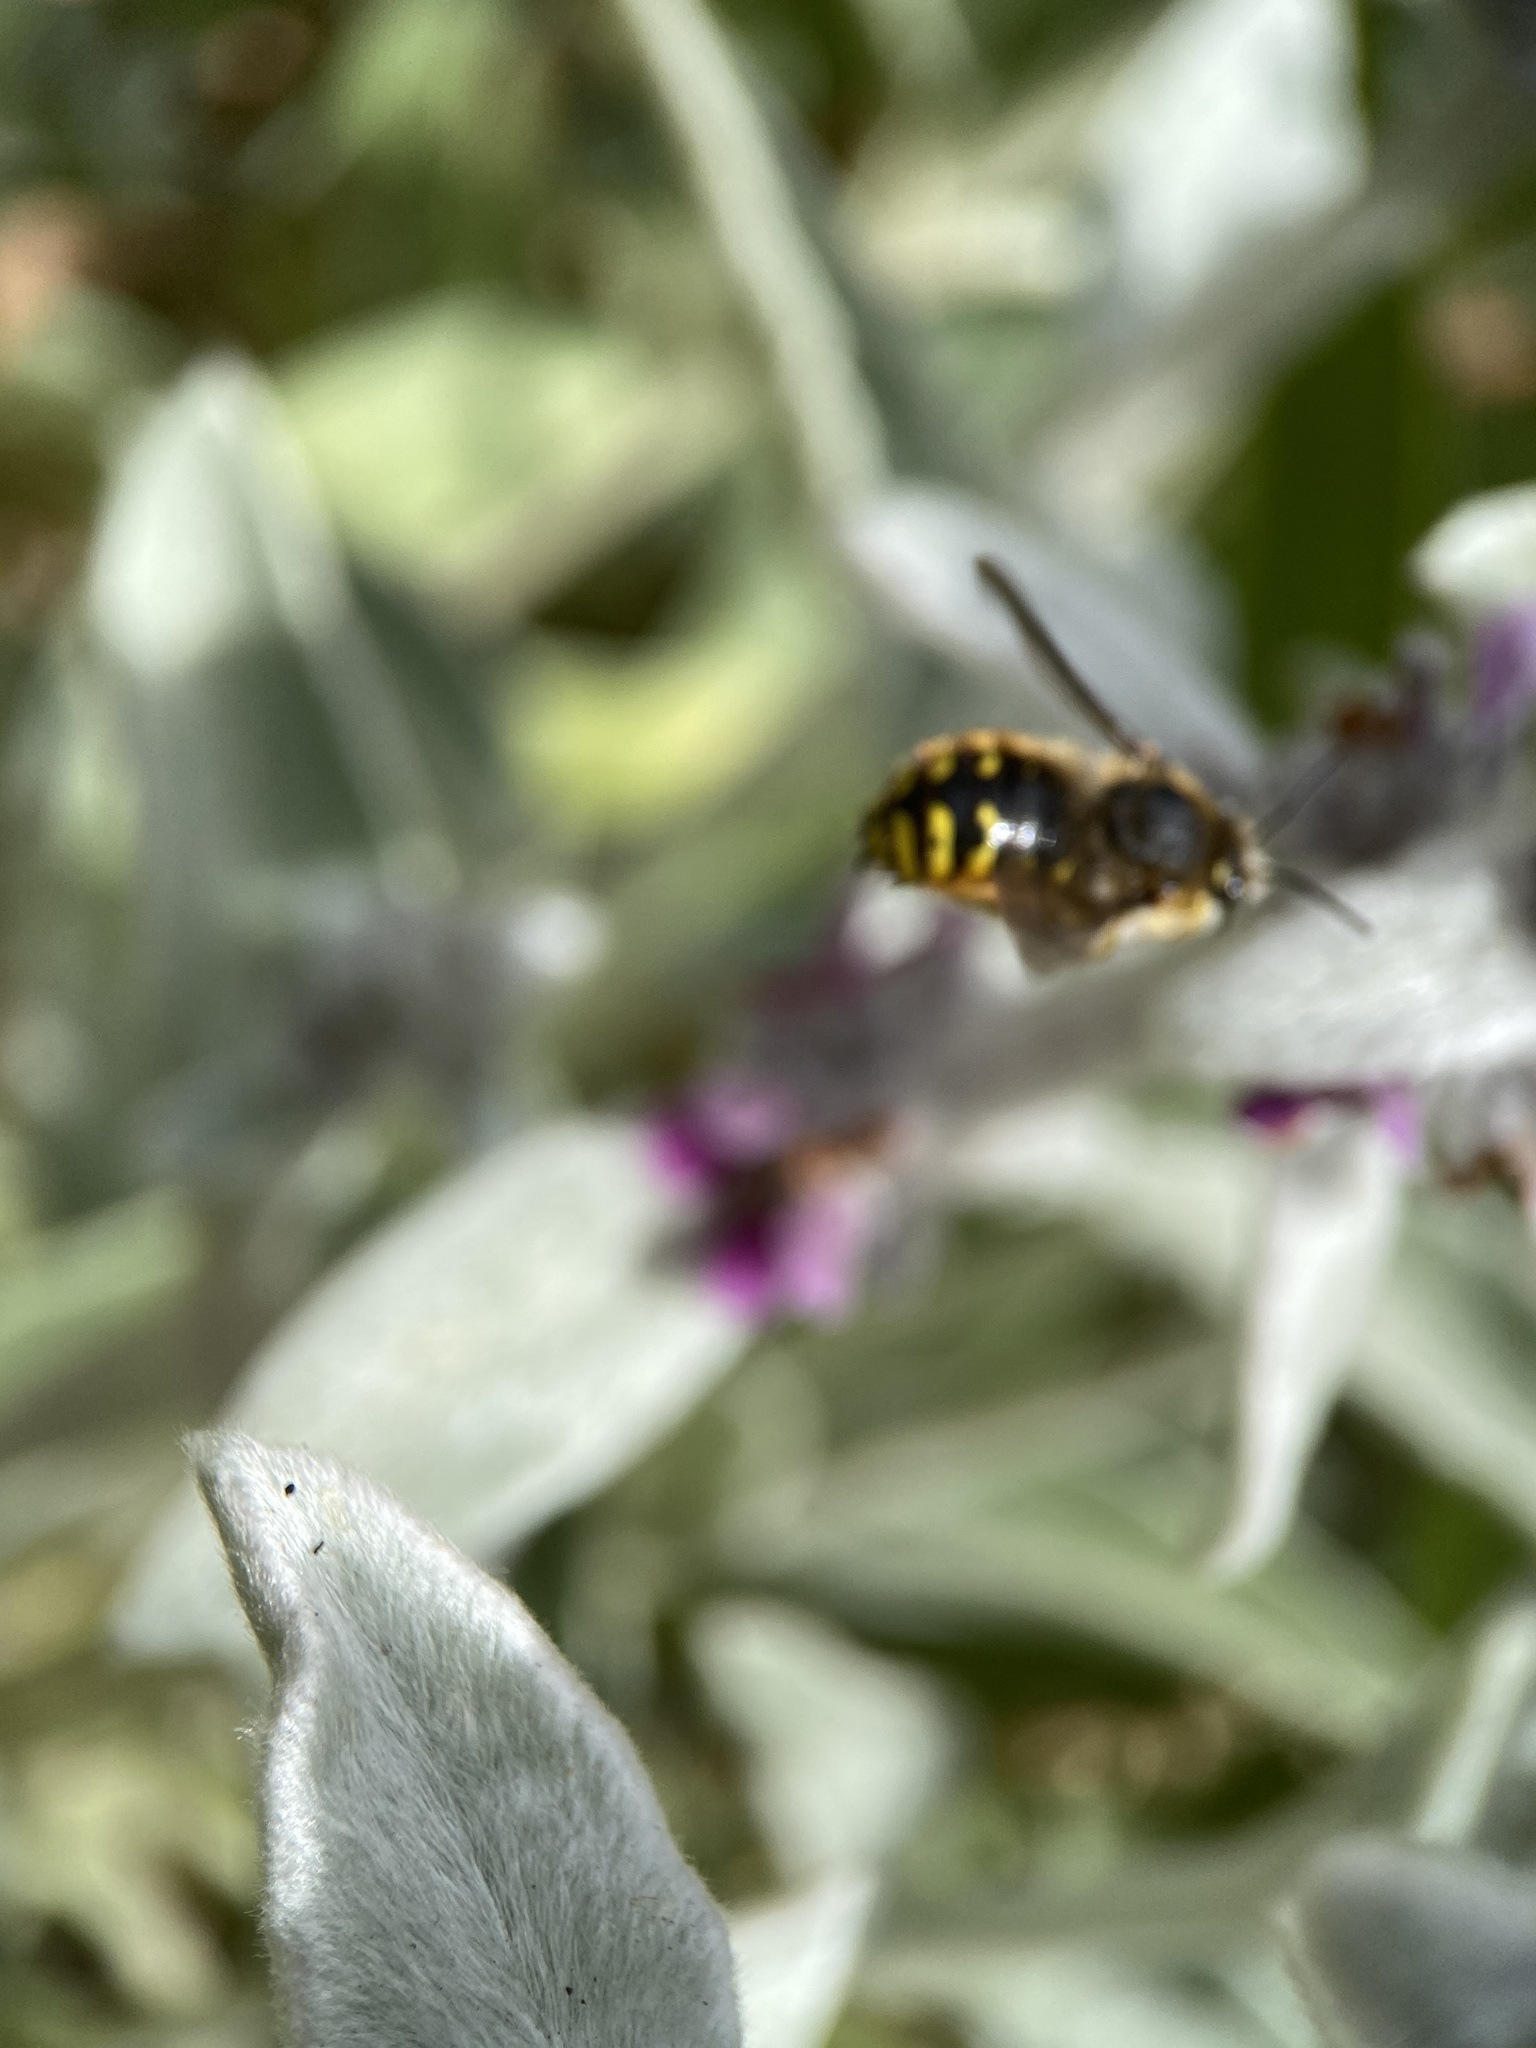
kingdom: Animalia
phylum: Arthropoda
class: Insecta
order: Hymenoptera
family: Megachilidae
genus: Anthidium
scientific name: Anthidium manicatum
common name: Wool carder bee
